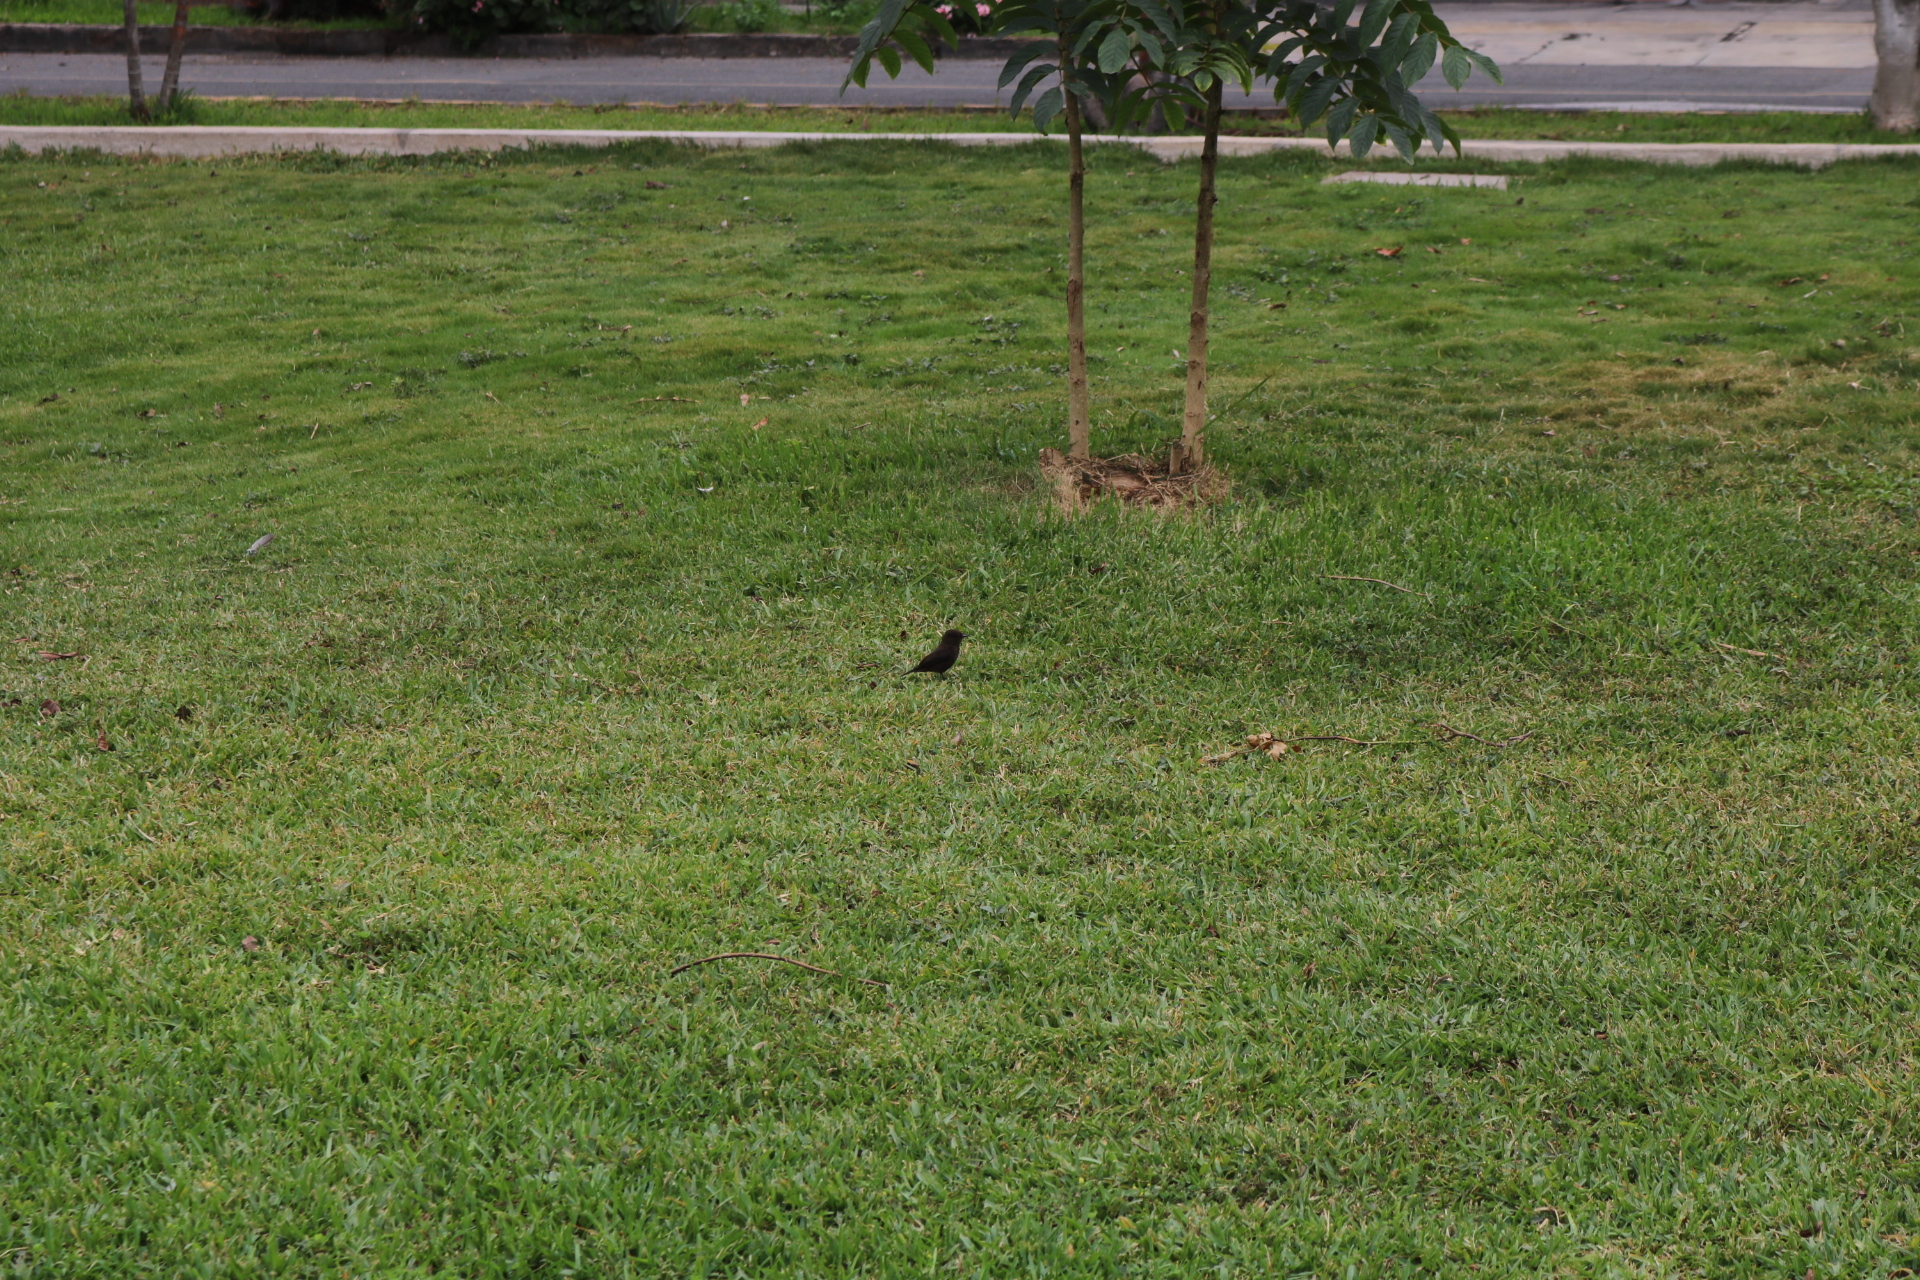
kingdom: Animalia
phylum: Chordata
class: Aves
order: Passeriformes
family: Tyrannidae
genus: Pyrocephalus
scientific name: Pyrocephalus rubinus
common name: Vermilion flycatcher
